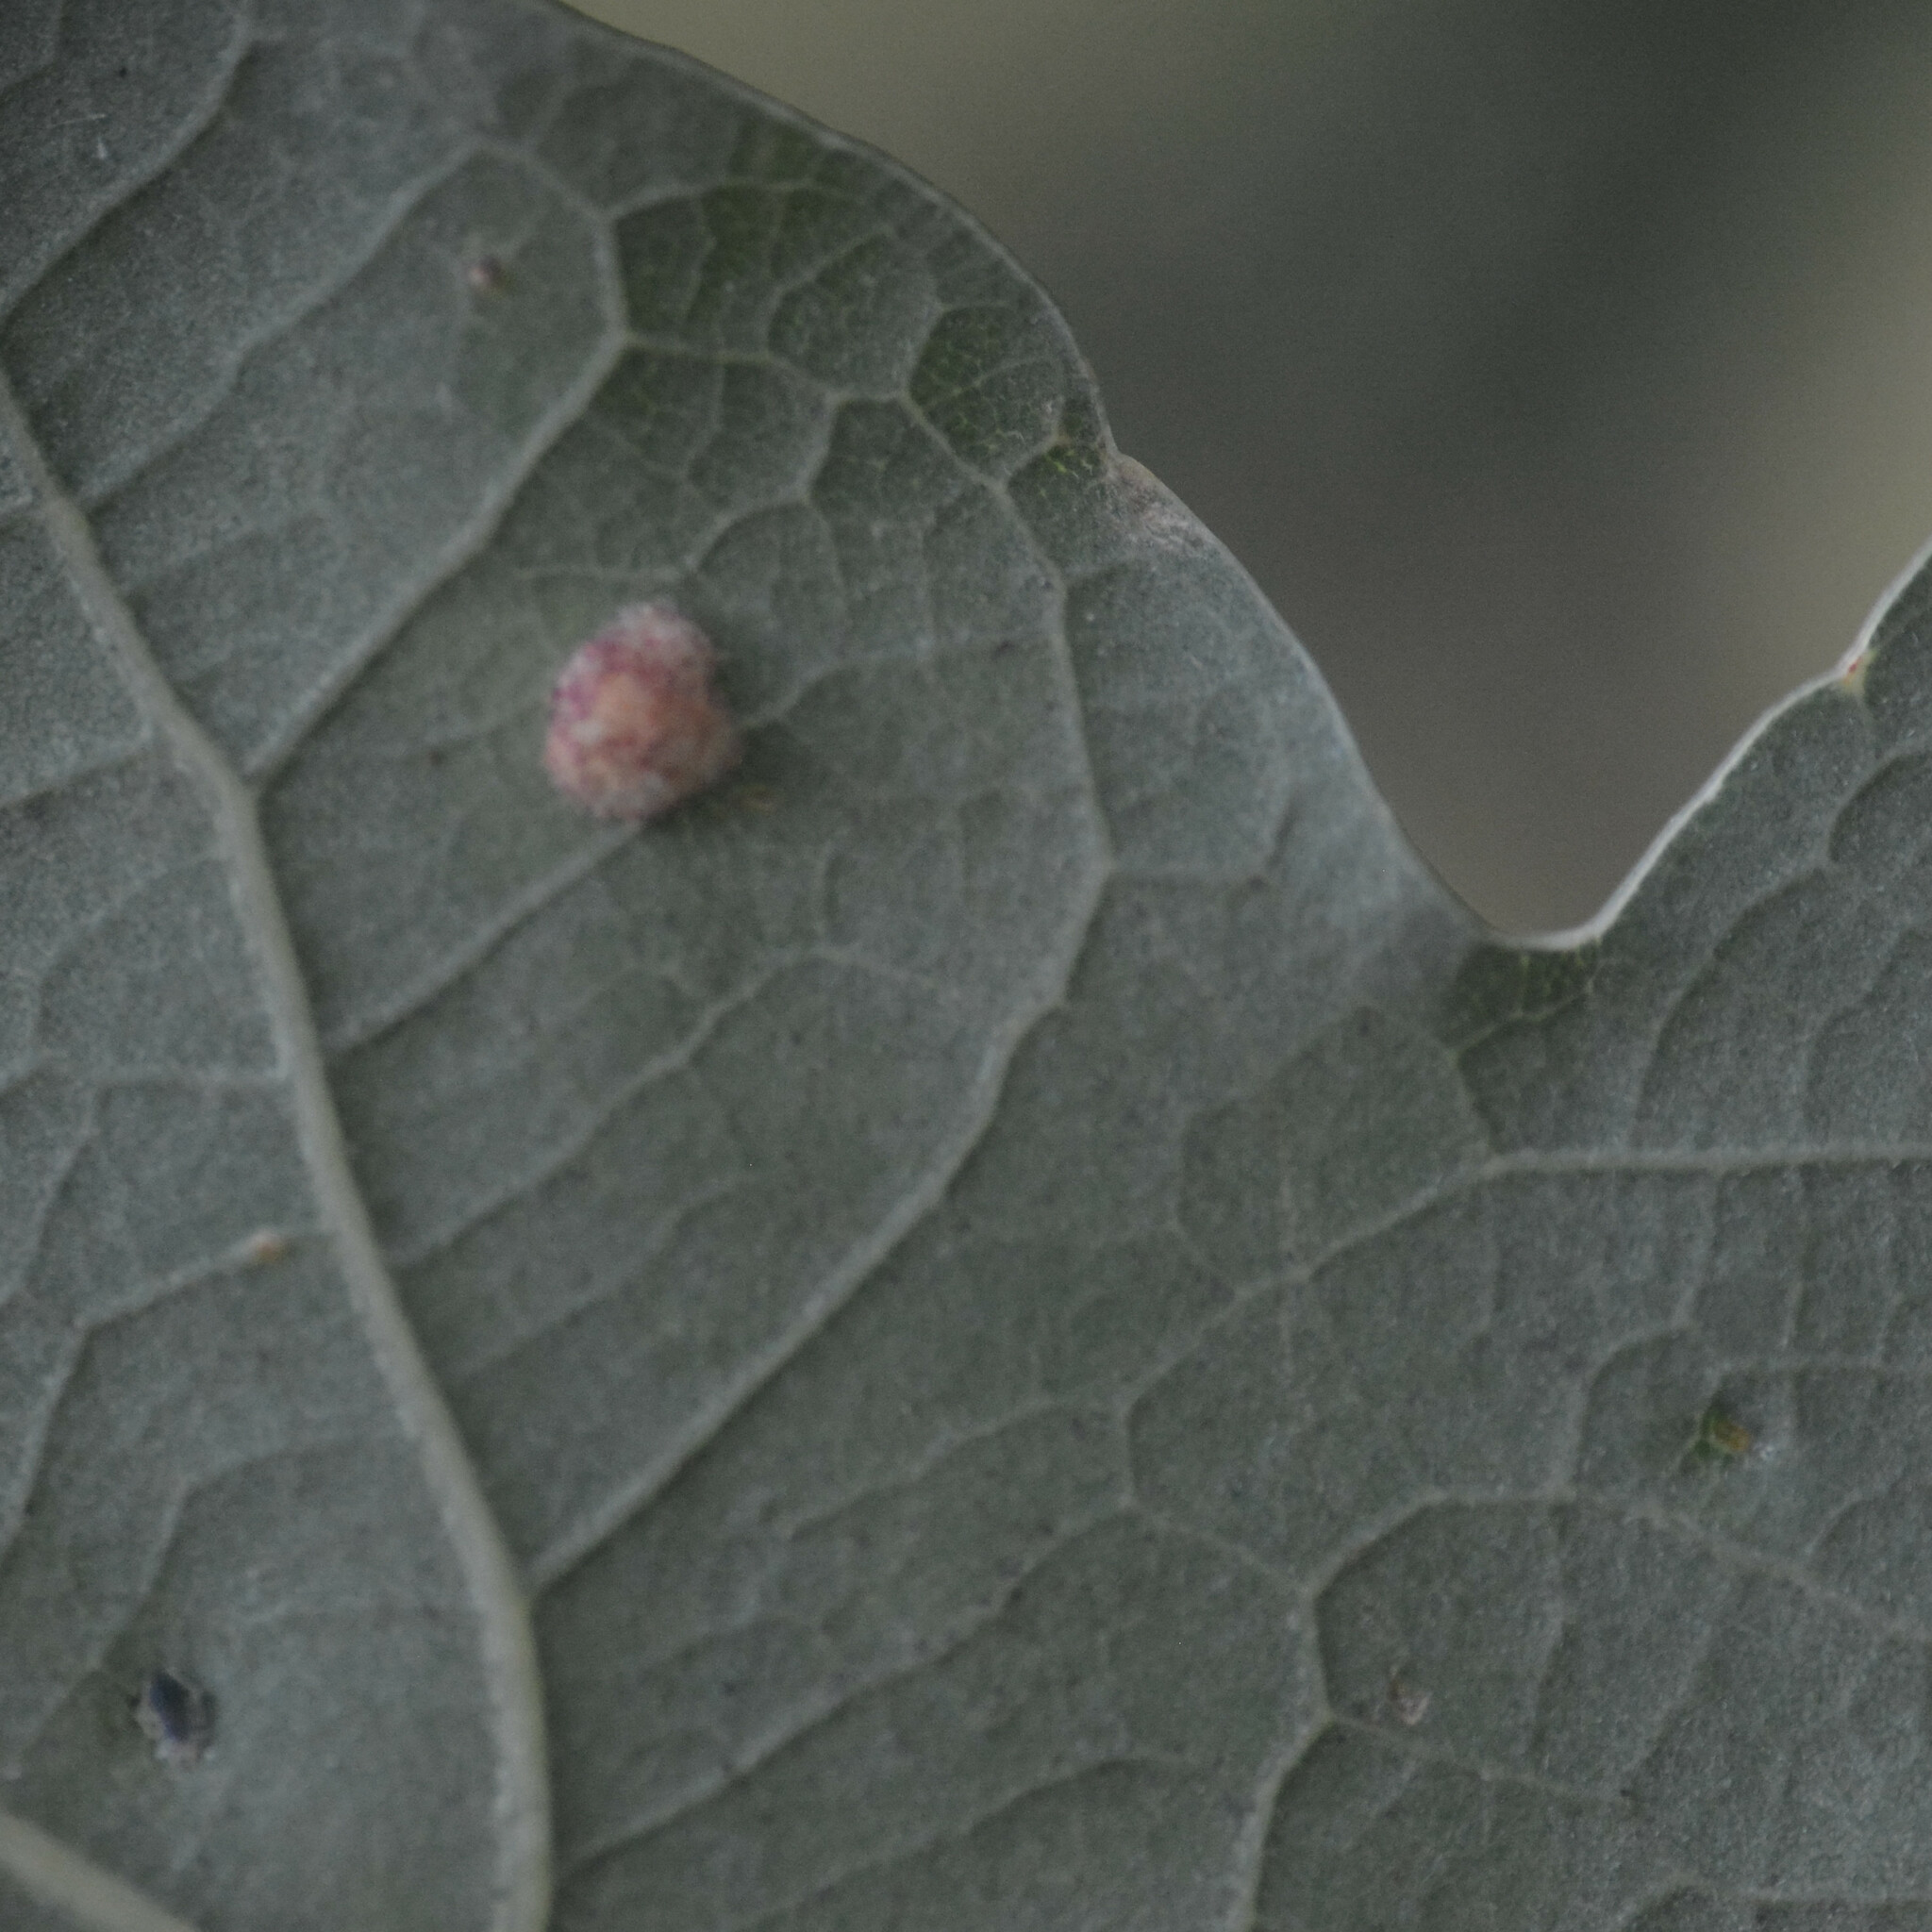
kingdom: Animalia
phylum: Arthropoda
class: Insecta
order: Hymenoptera
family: Cynipidae
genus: Neuroterus
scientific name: Neuroterus quercusbaccarum
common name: Common spangle gall
